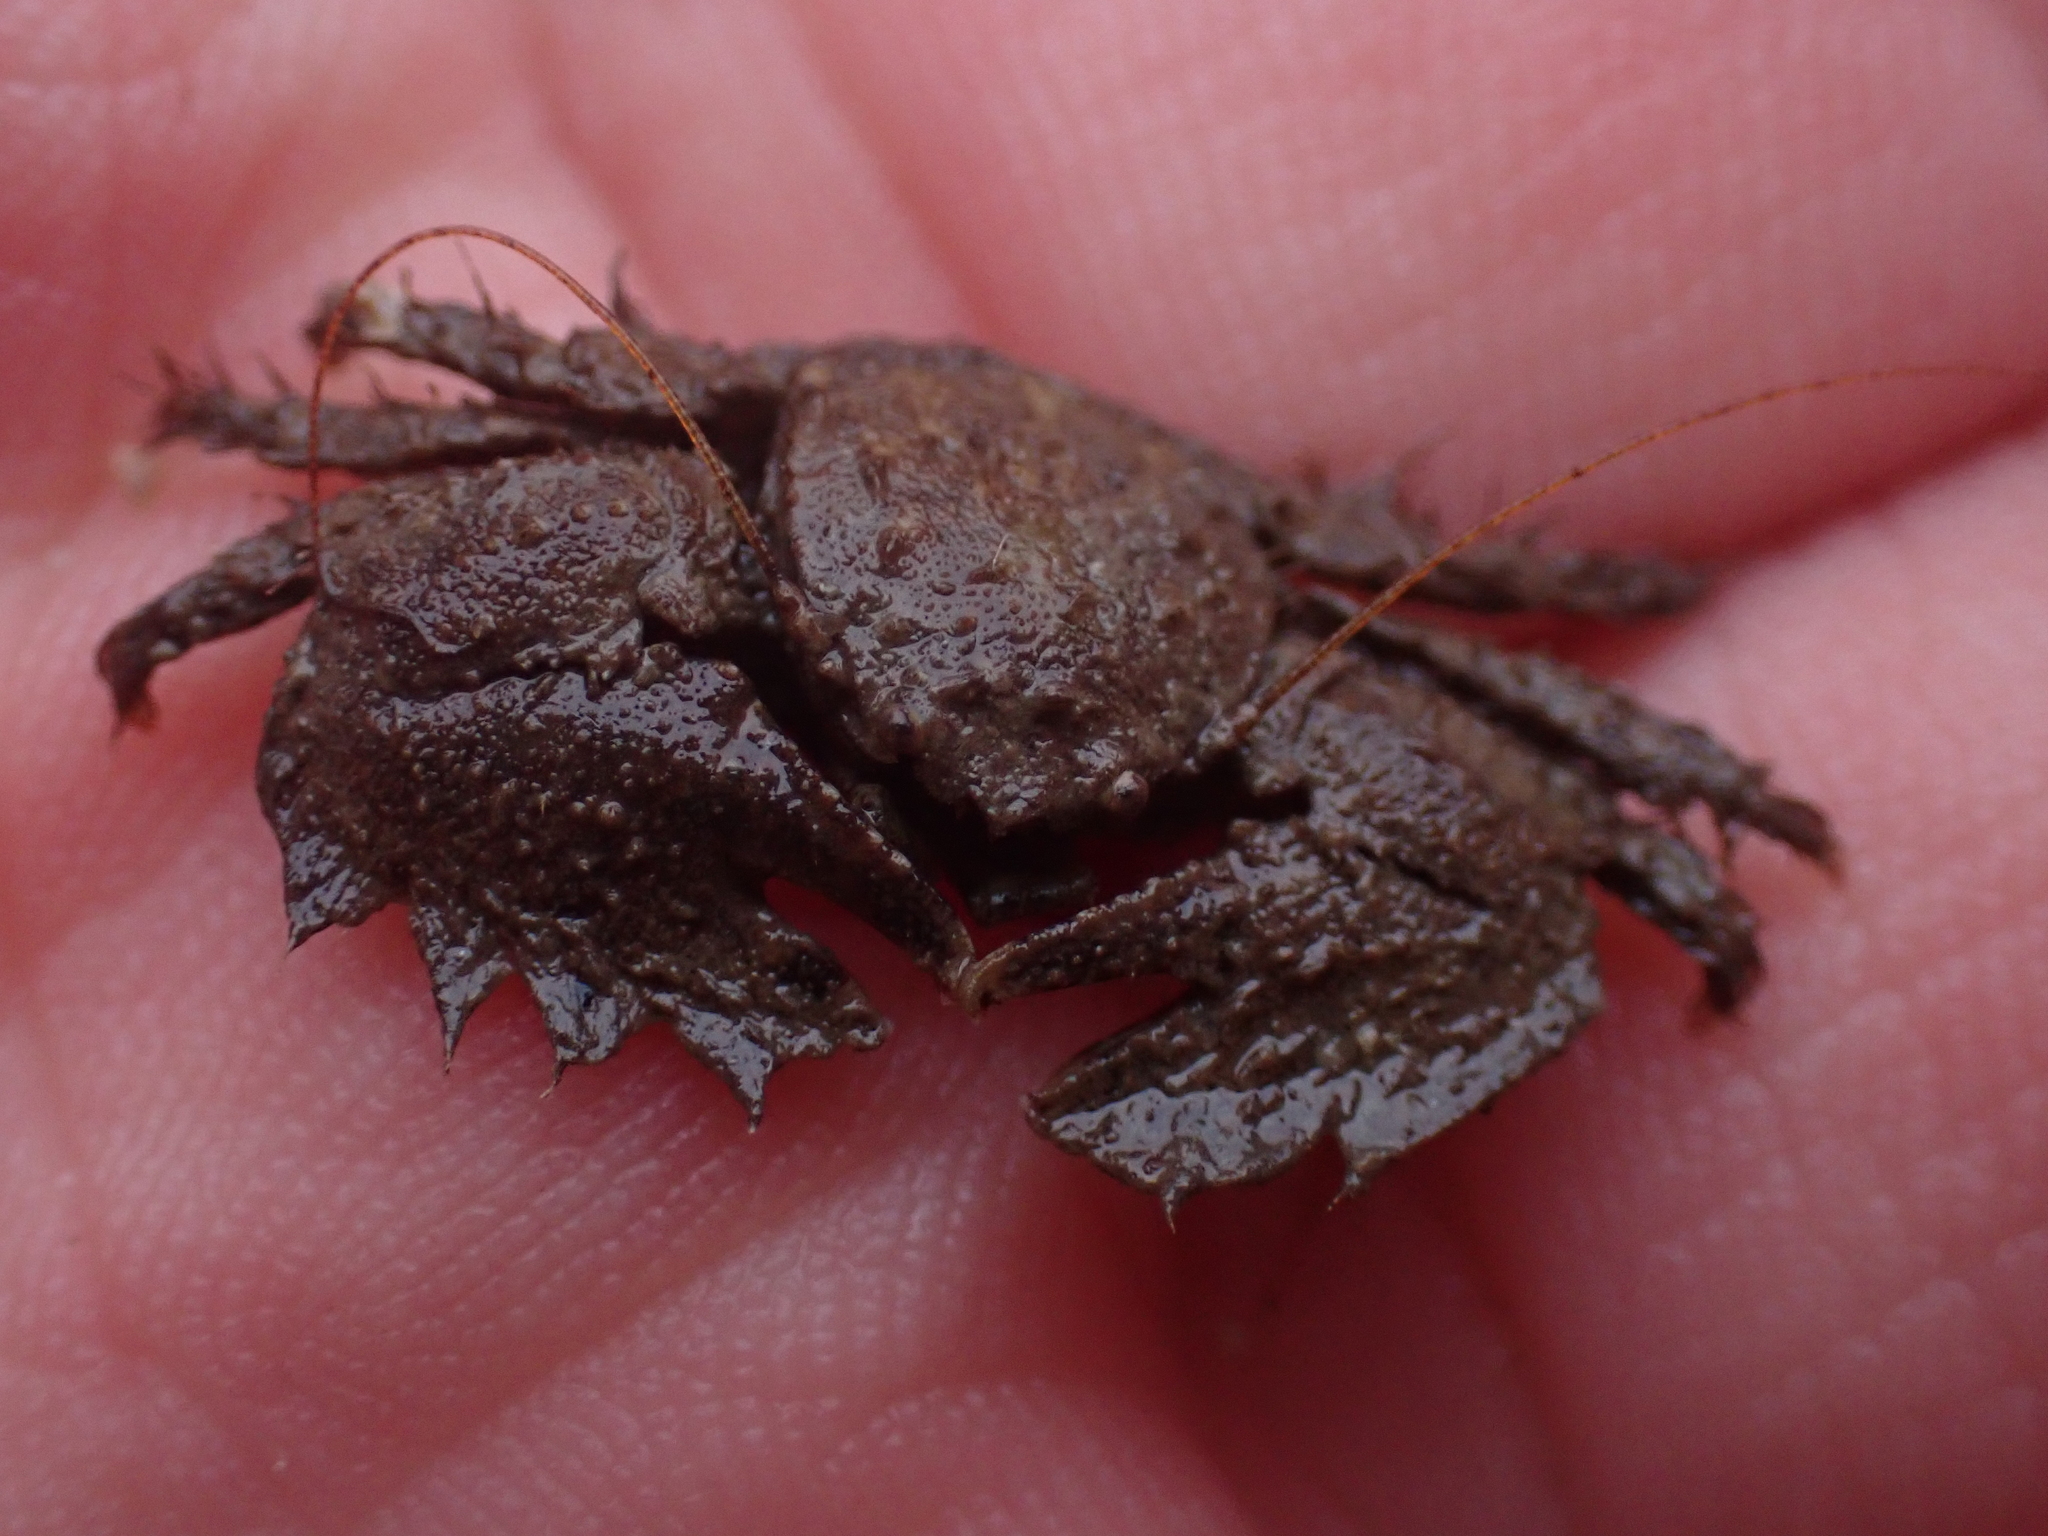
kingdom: Animalia
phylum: Arthropoda
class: Malacostraca
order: Decapoda
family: Porcellanidae
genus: Porcellana
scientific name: Porcellana platycheles
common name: Porcelain crab
